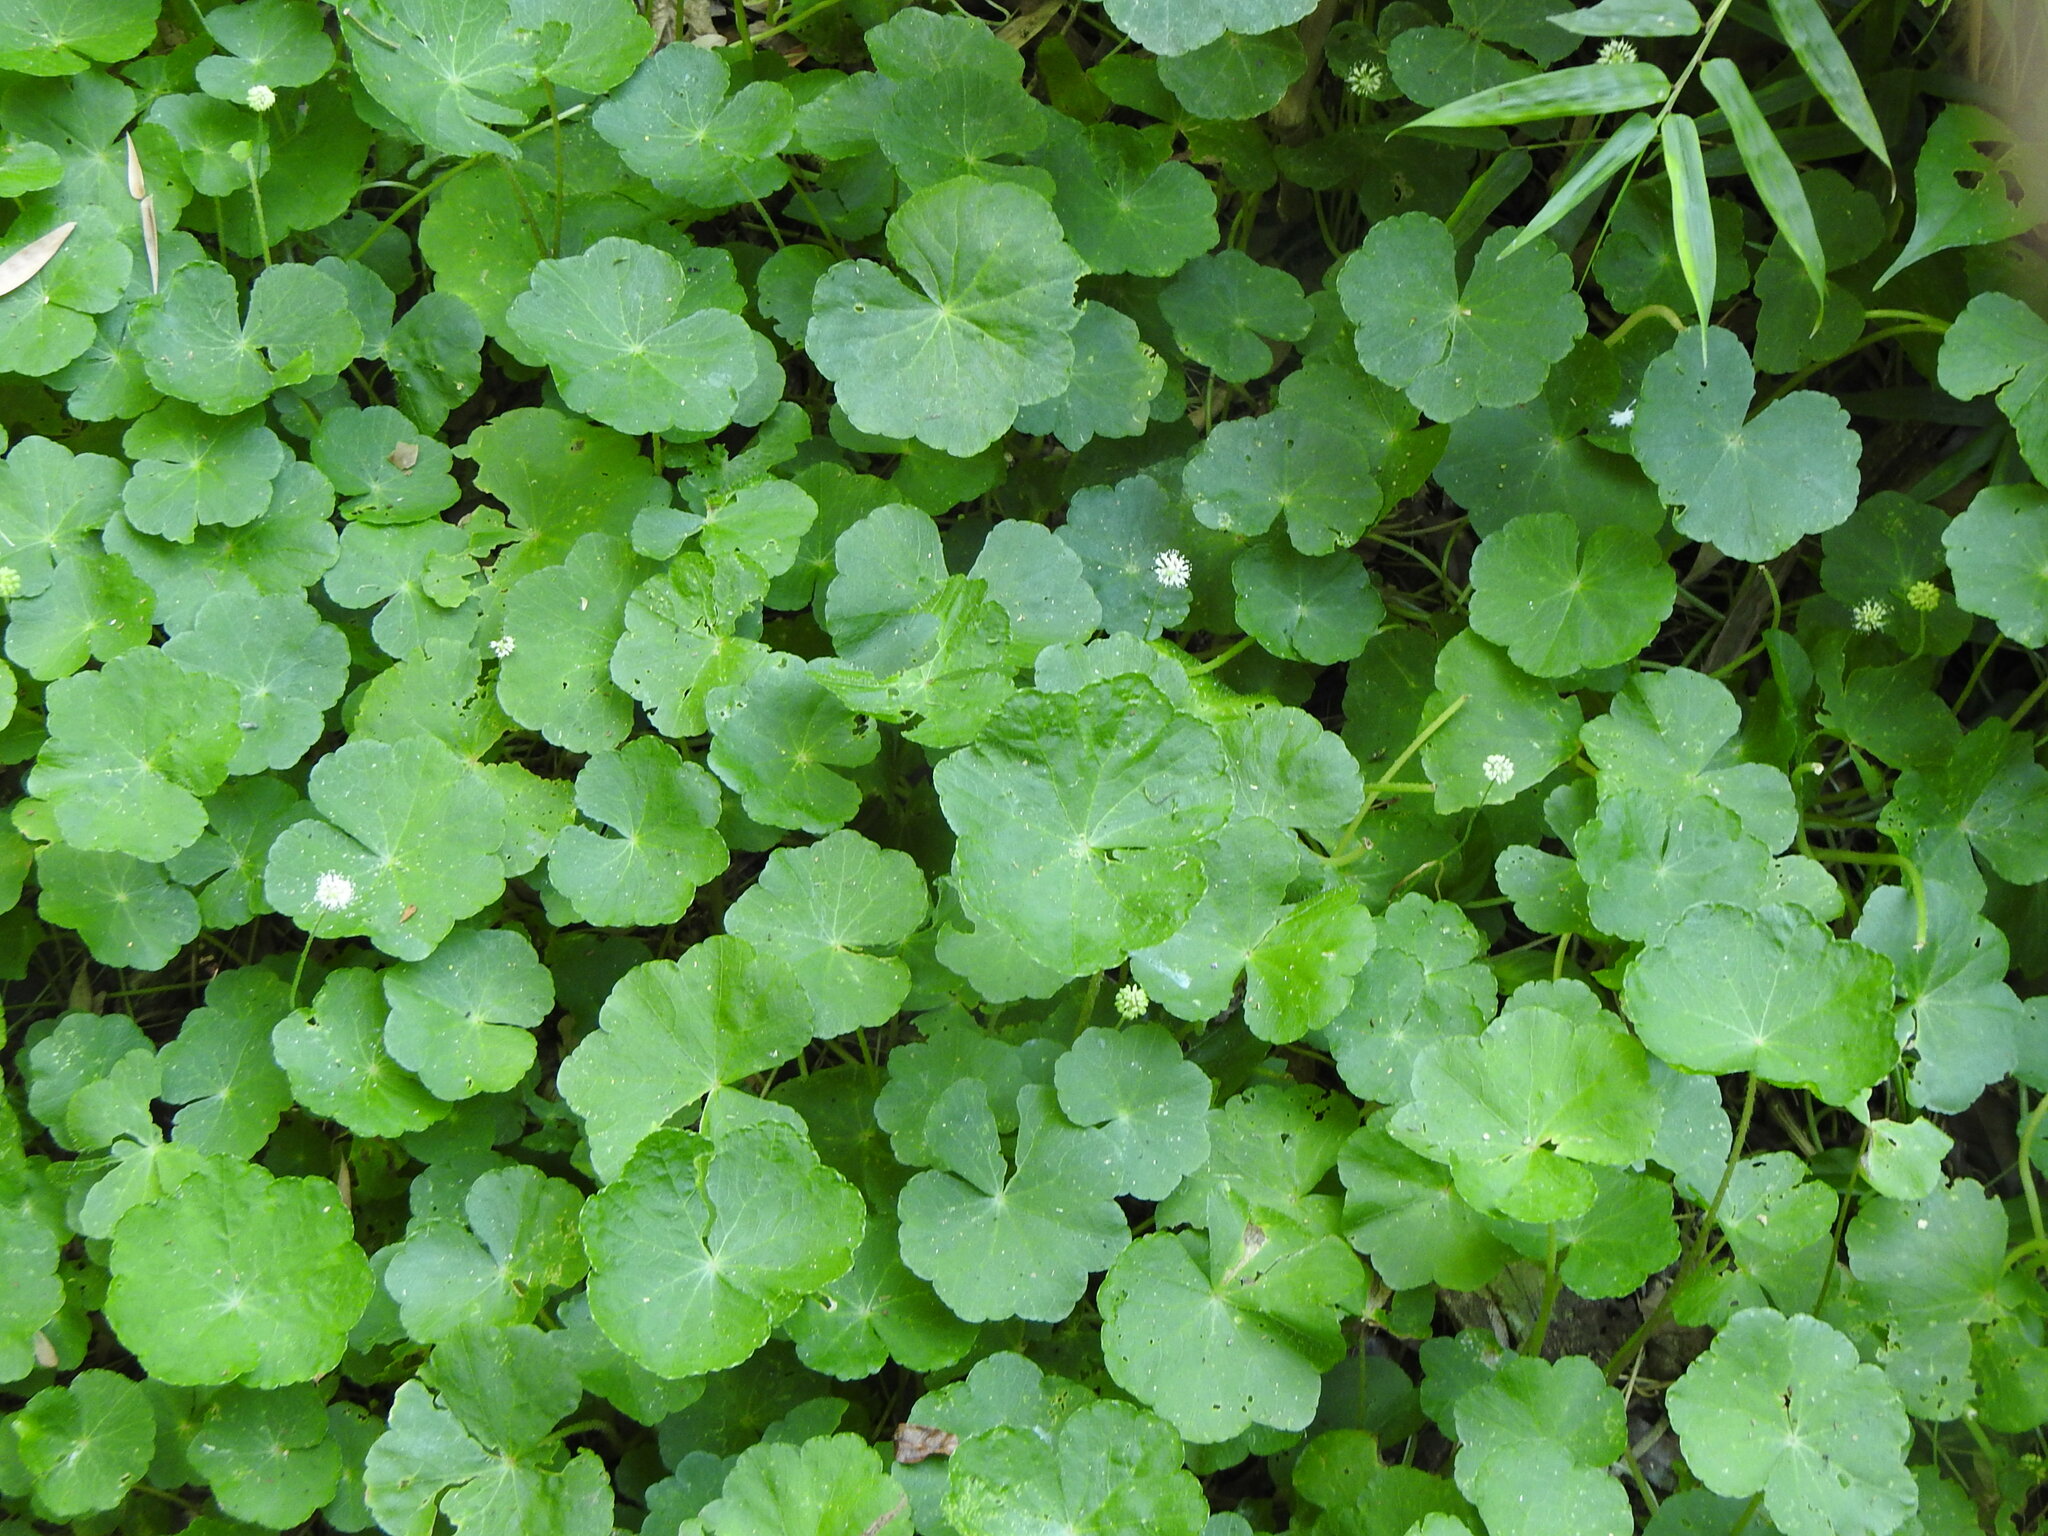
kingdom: Plantae
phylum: Tracheophyta
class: Magnoliopsida
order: Apiales
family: Araliaceae
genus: Hydrocotyle
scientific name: Hydrocotyle leucocephala
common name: Brazilian pennywort
